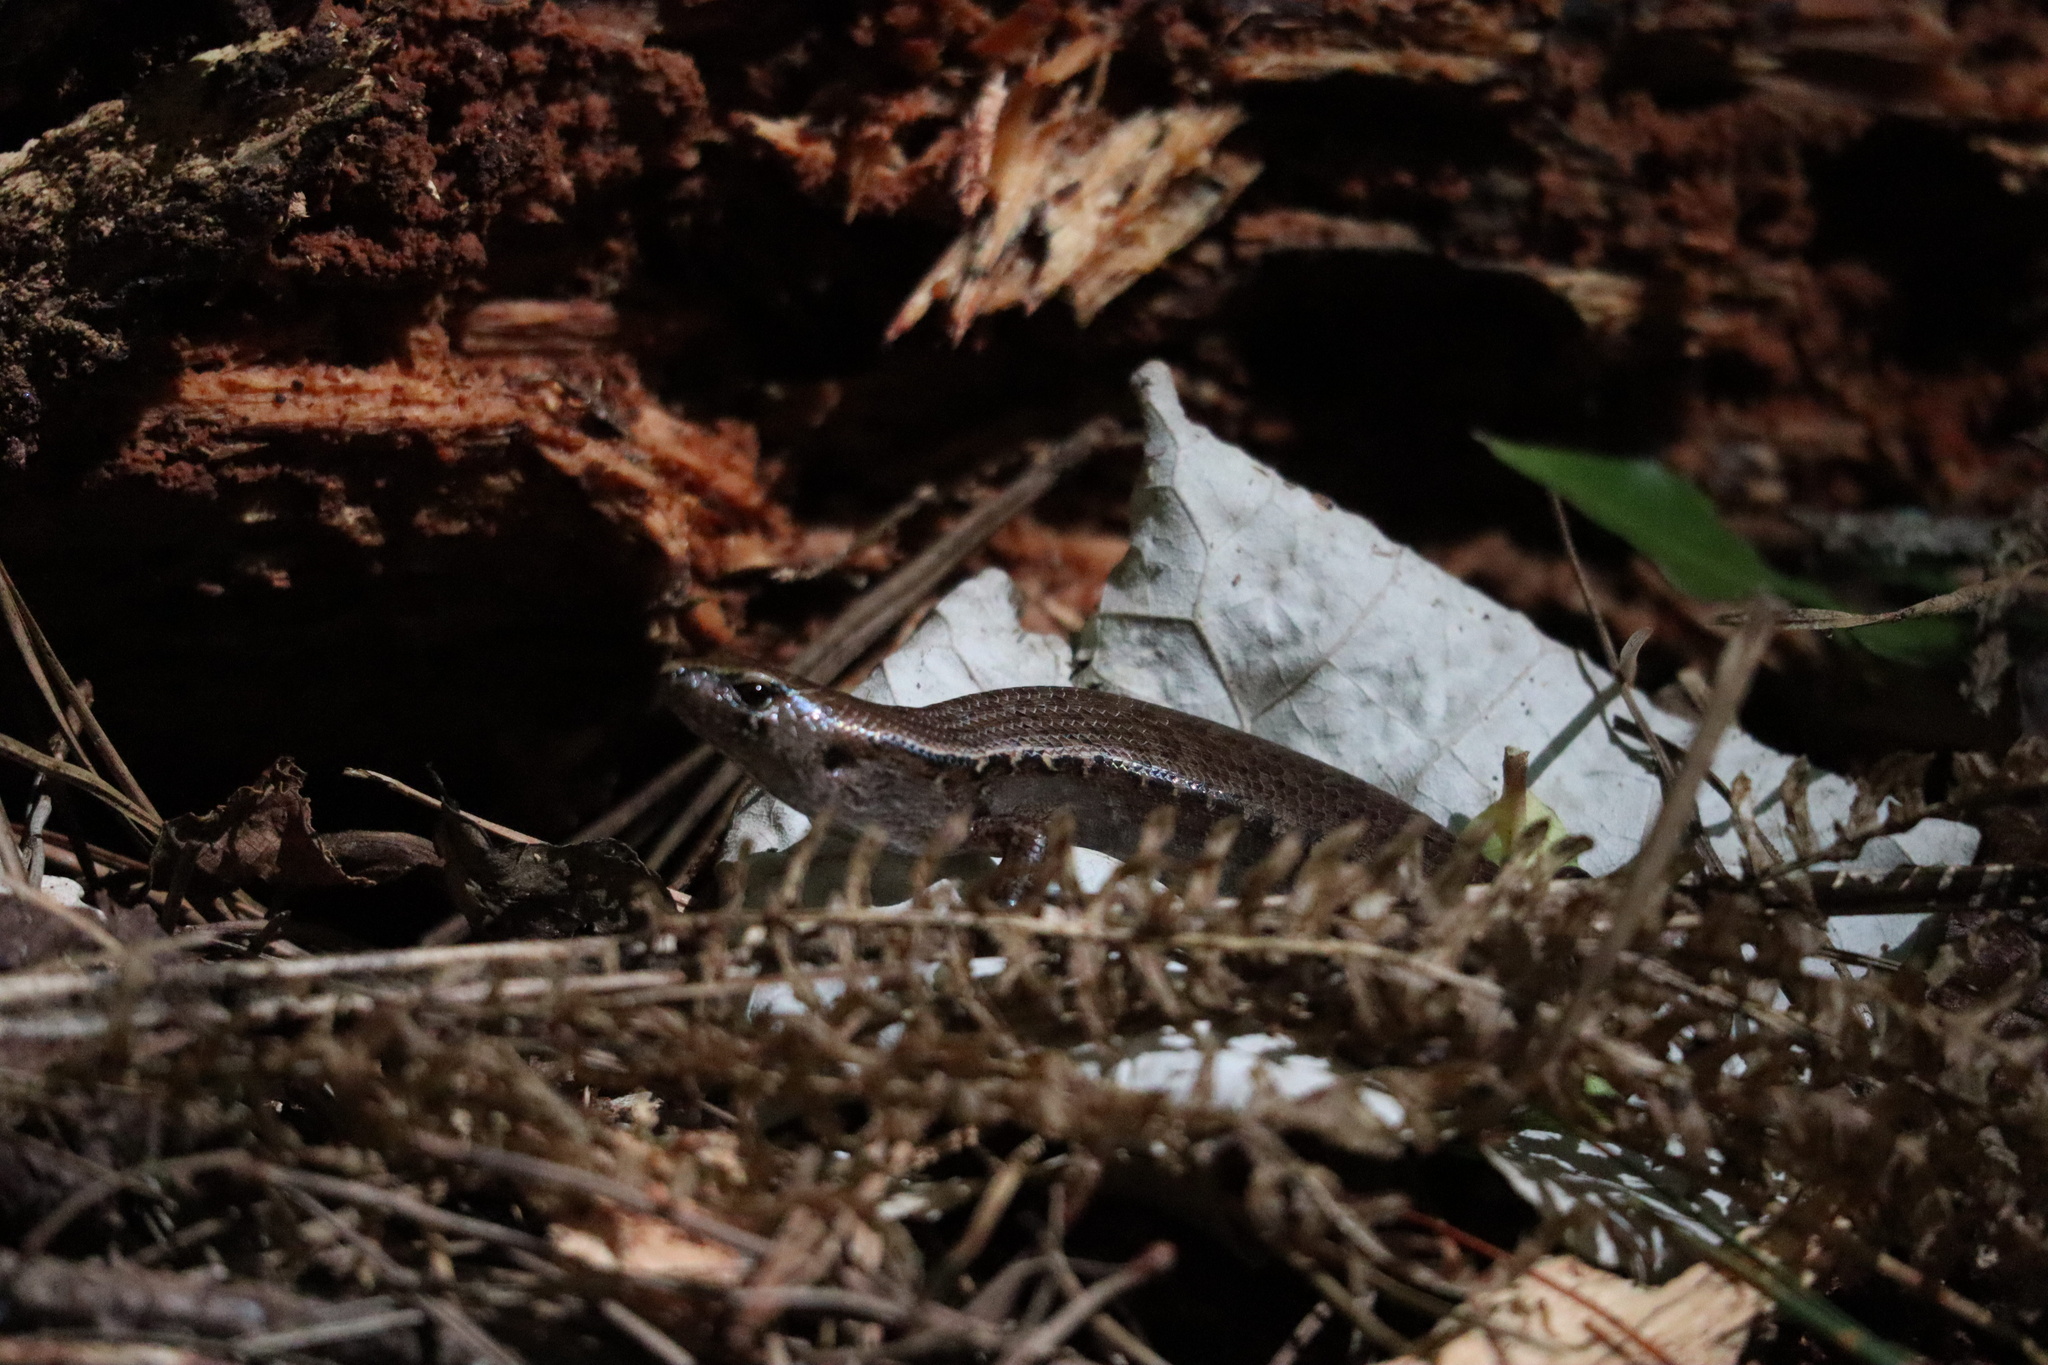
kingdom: Animalia
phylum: Chordata
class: Squamata
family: Scincidae
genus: Oligosoma
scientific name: Oligosoma ornatum
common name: Gray's ornate skink
